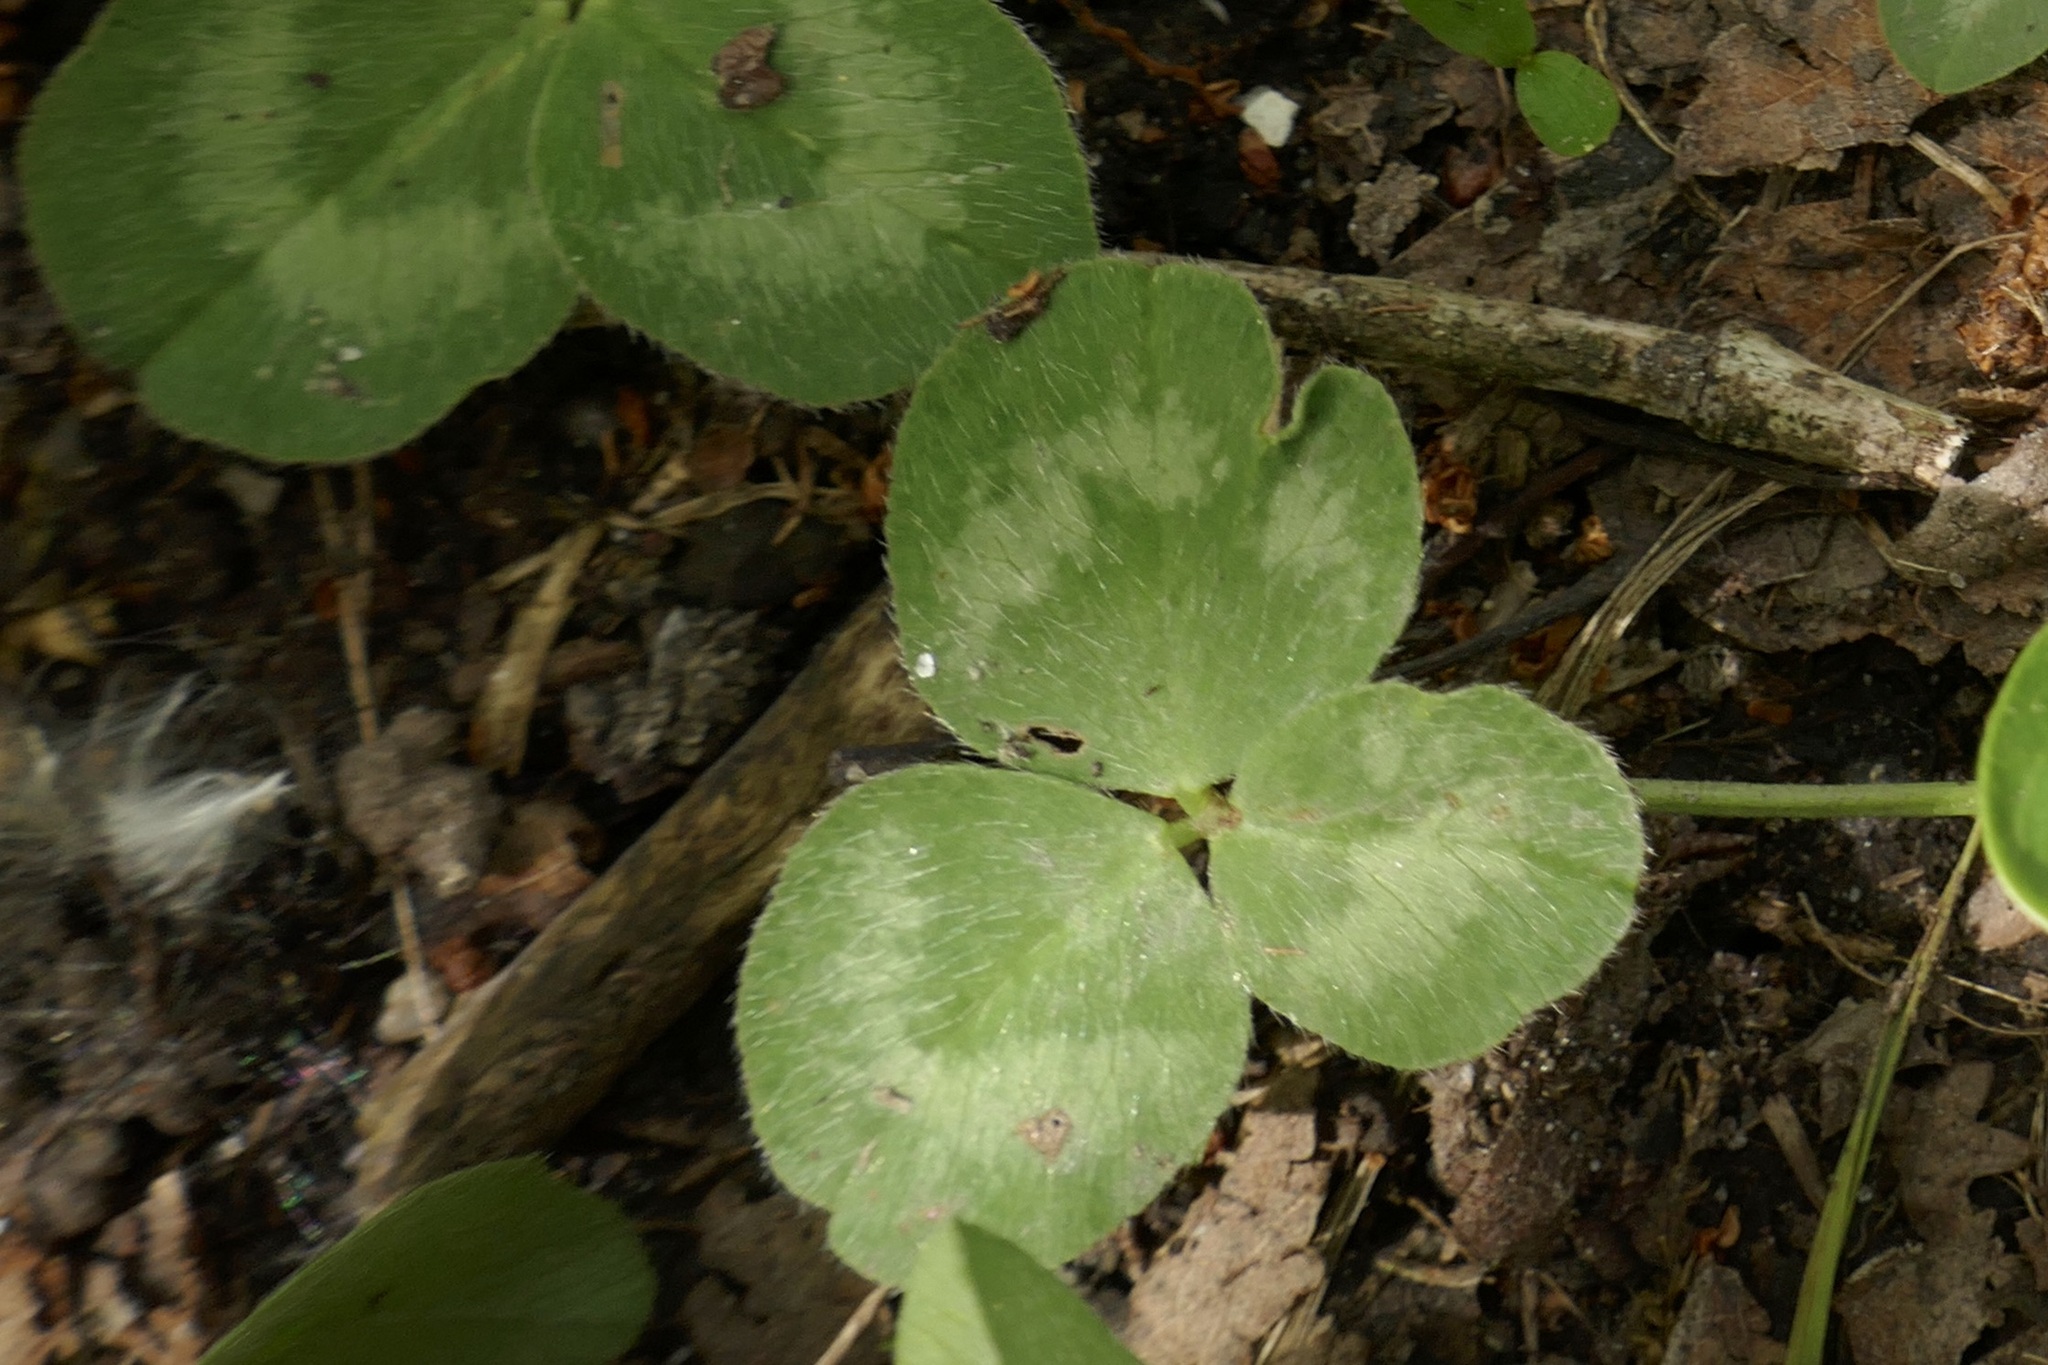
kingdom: Plantae
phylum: Tracheophyta
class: Magnoliopsida
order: Fabales
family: Fabaceae
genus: Trifolium
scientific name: Trifolium pratense
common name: Red clover
